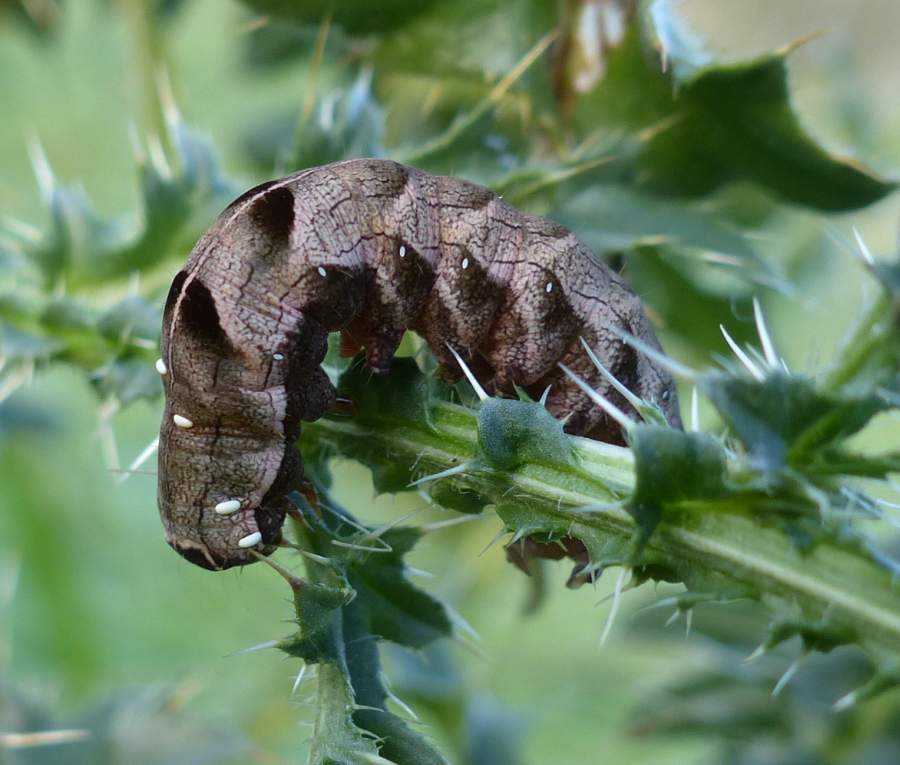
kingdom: Animalia
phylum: Arthropoda
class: Insecta
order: Lepidoptera
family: Noctuidae
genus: Melanchra
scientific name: Melanchra adjuncta
